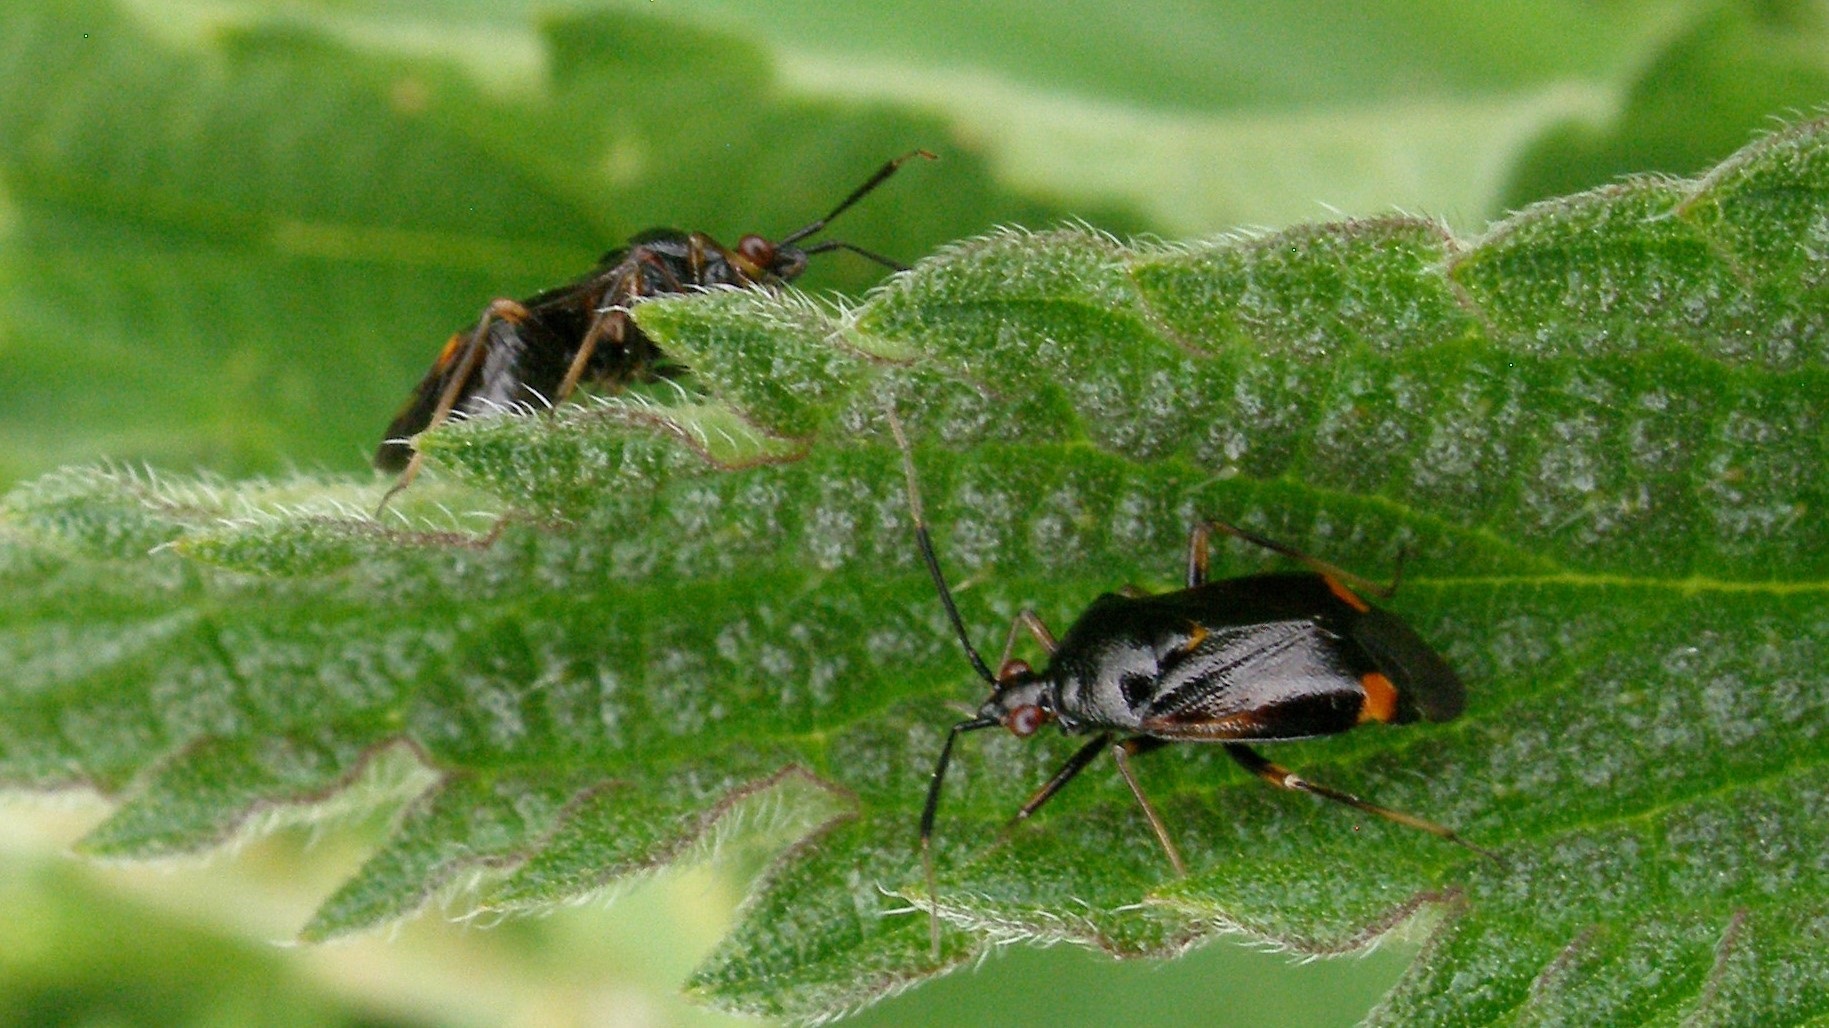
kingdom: Animalia
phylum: Arthropoda
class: Insecta
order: Hemiptera
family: Miridae
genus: Deraeocoris
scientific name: Deraeocoris ruber
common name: Plant bug
